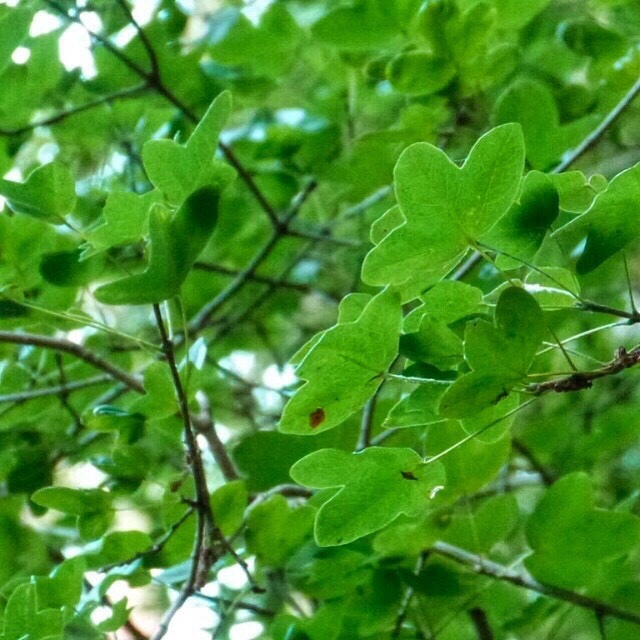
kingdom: Plantae
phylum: Tracheophyta
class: Magnoliopsida
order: Sapindales
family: Sapindaceae
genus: Acer
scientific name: Acer monspessulanum
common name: Montpellier maple
